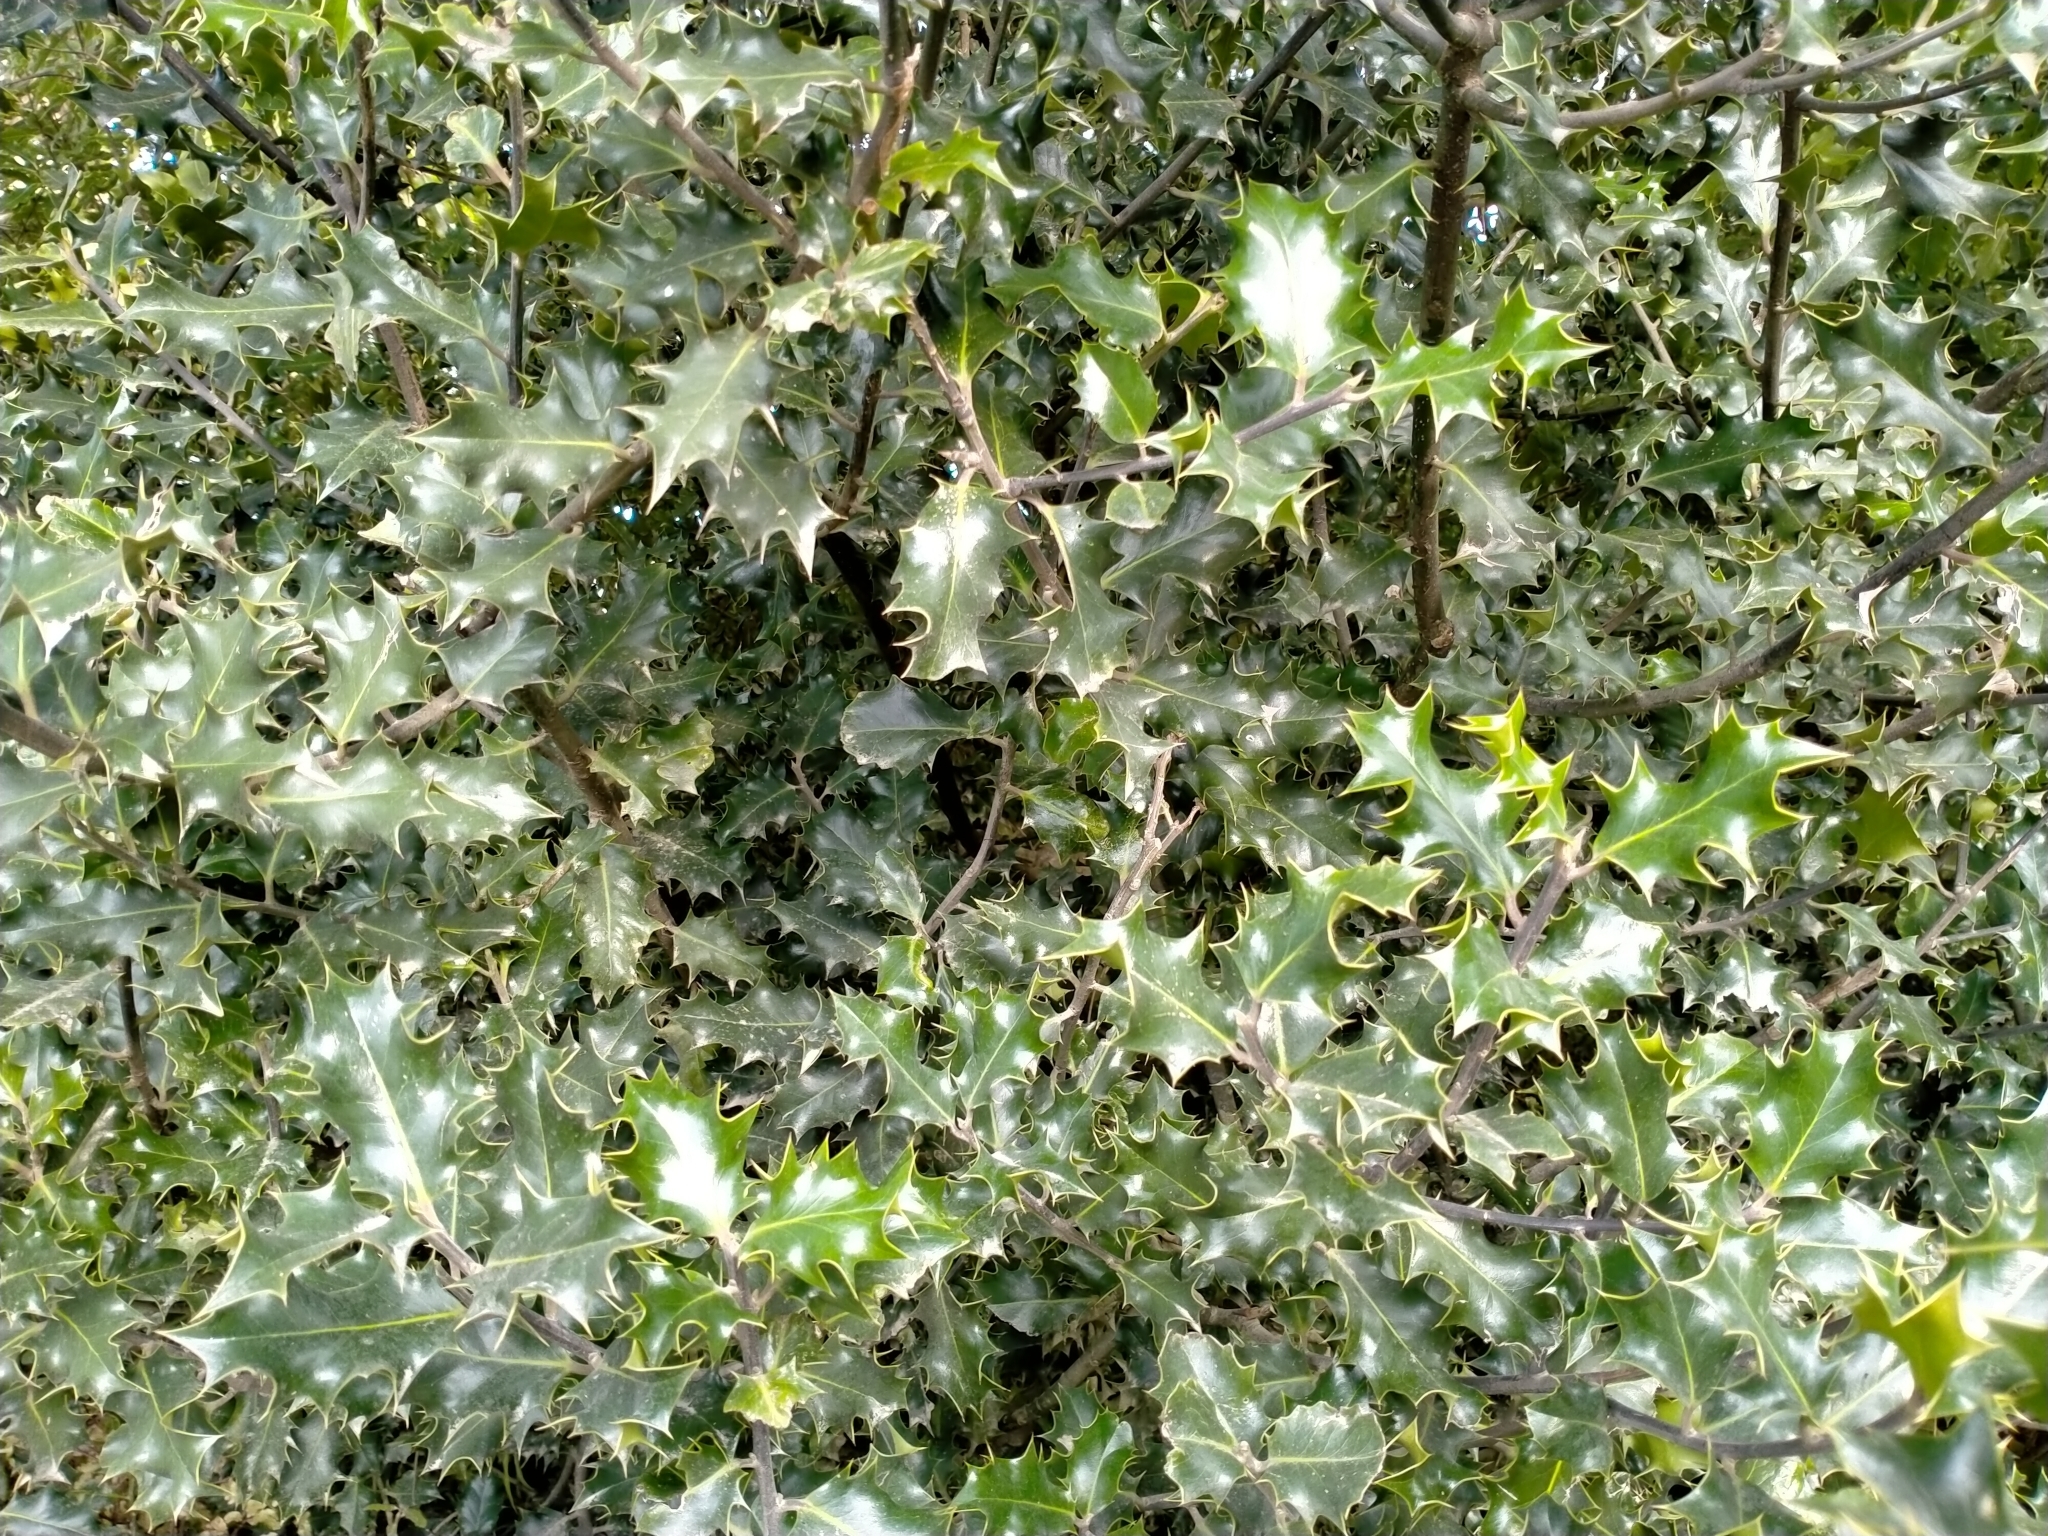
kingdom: Plantae
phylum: Tracheophyta
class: Magnoliopsida
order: Aquifoliales
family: Aquifoliaceae
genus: Ilex
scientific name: Ilex aquifolium
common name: English holly
